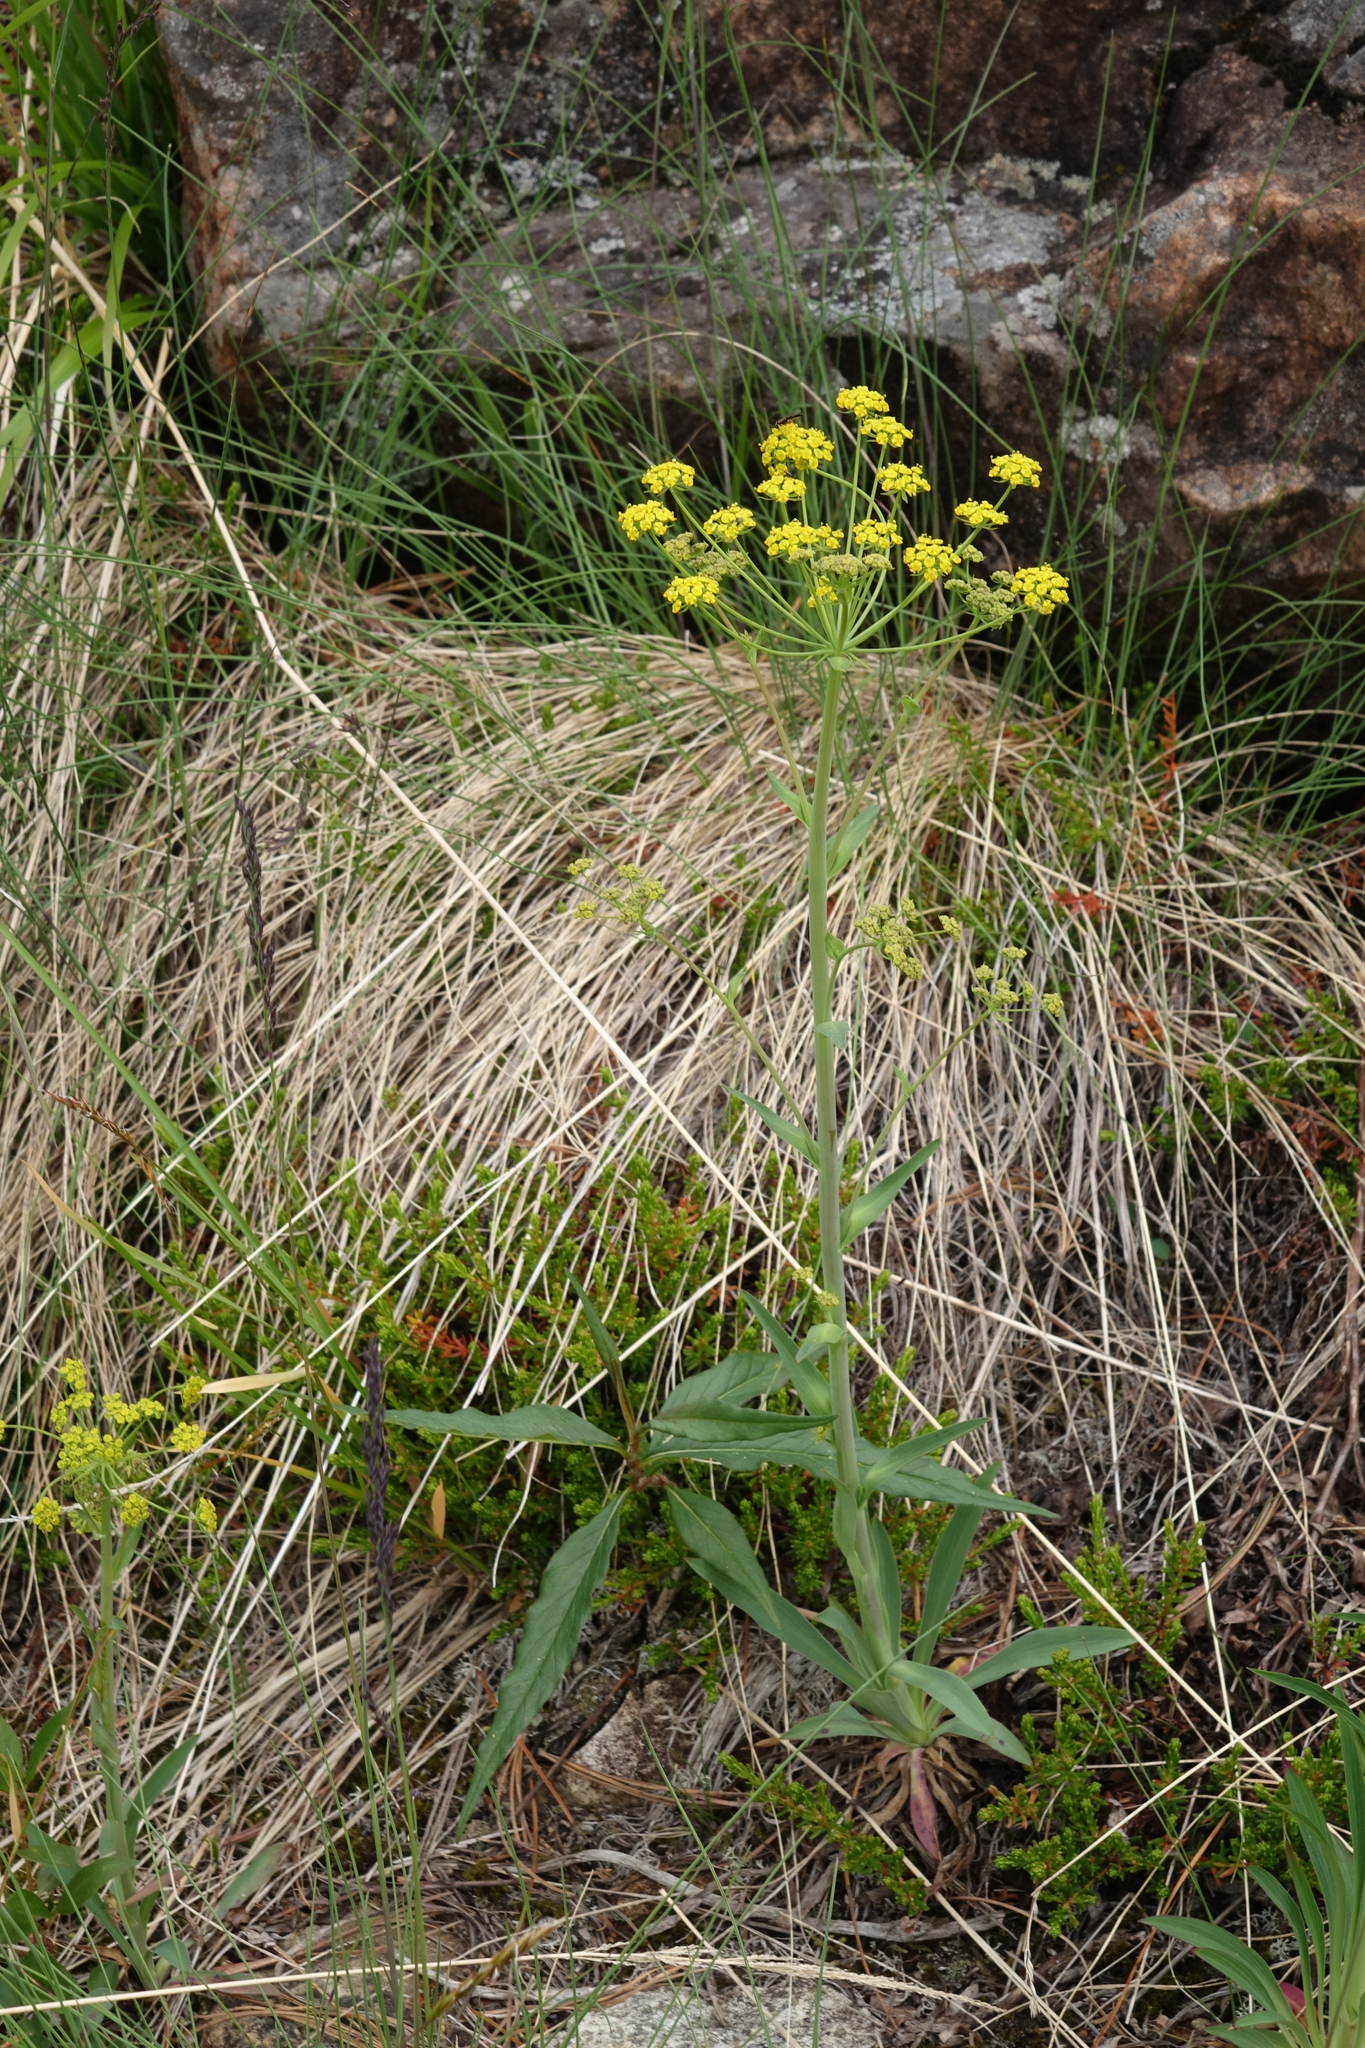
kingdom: Plantae
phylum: Tracheophyta
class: Magnoliopsida
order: Apiales
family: Apiaceae
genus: Bupleurum
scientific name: Bupleurum martjanovii
